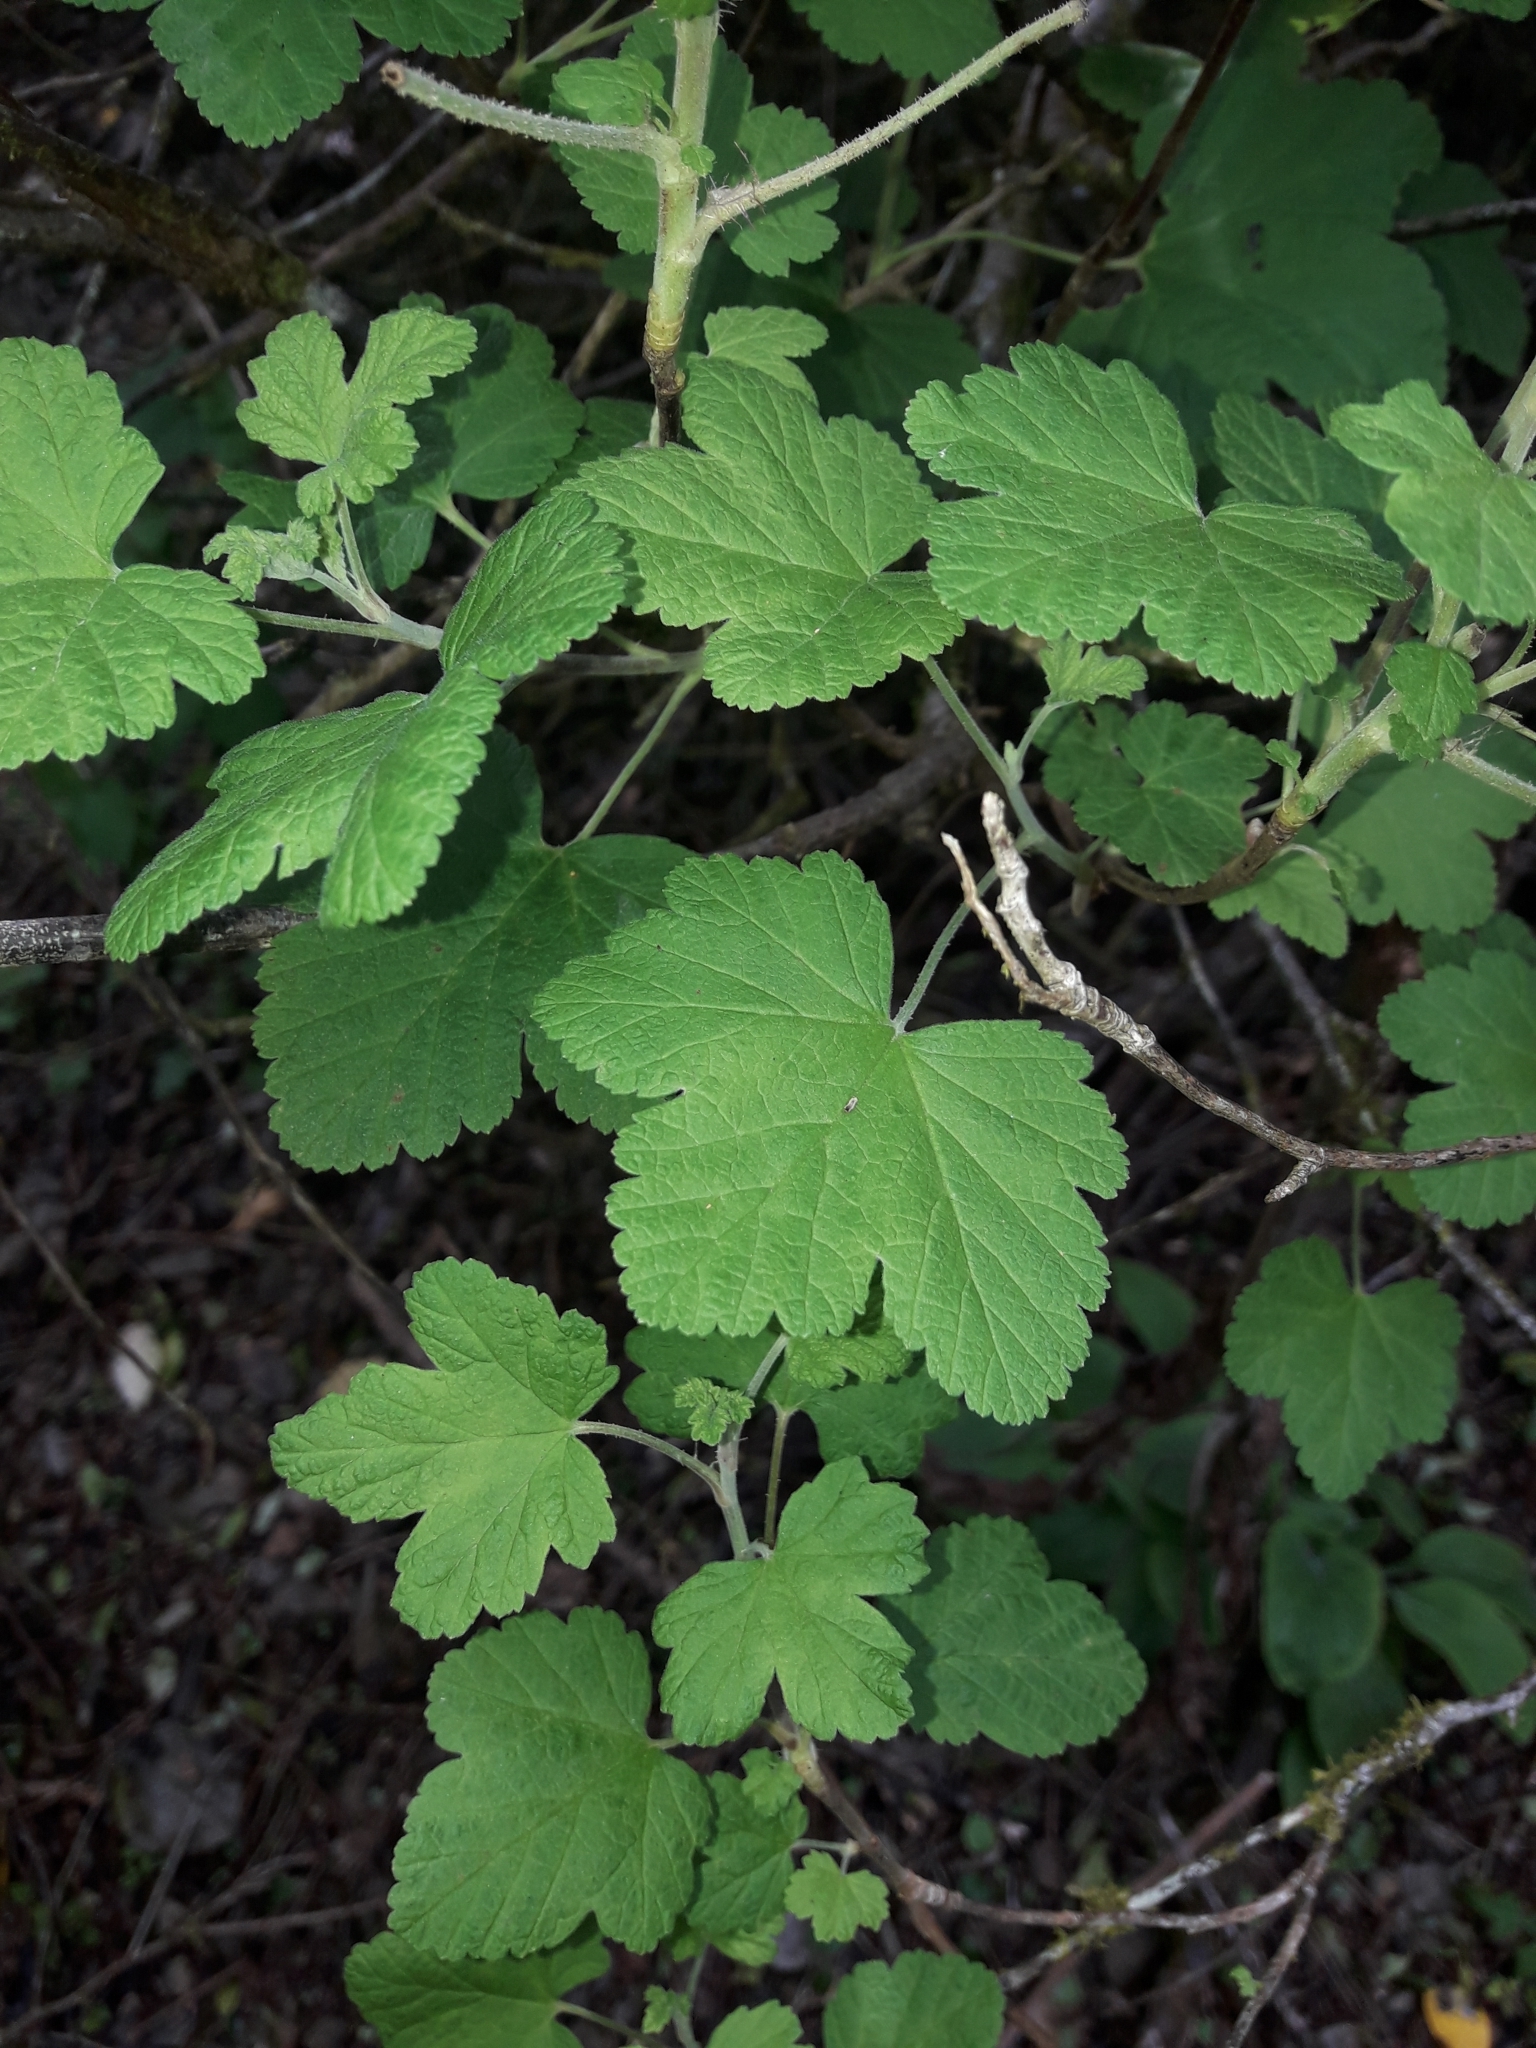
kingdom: Plantae
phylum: Tracheophyta
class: Magnoliopsida
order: Saxifragales
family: Grossulariaceae
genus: Ribes
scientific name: Ribes sanguineum
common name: Flowering currant
